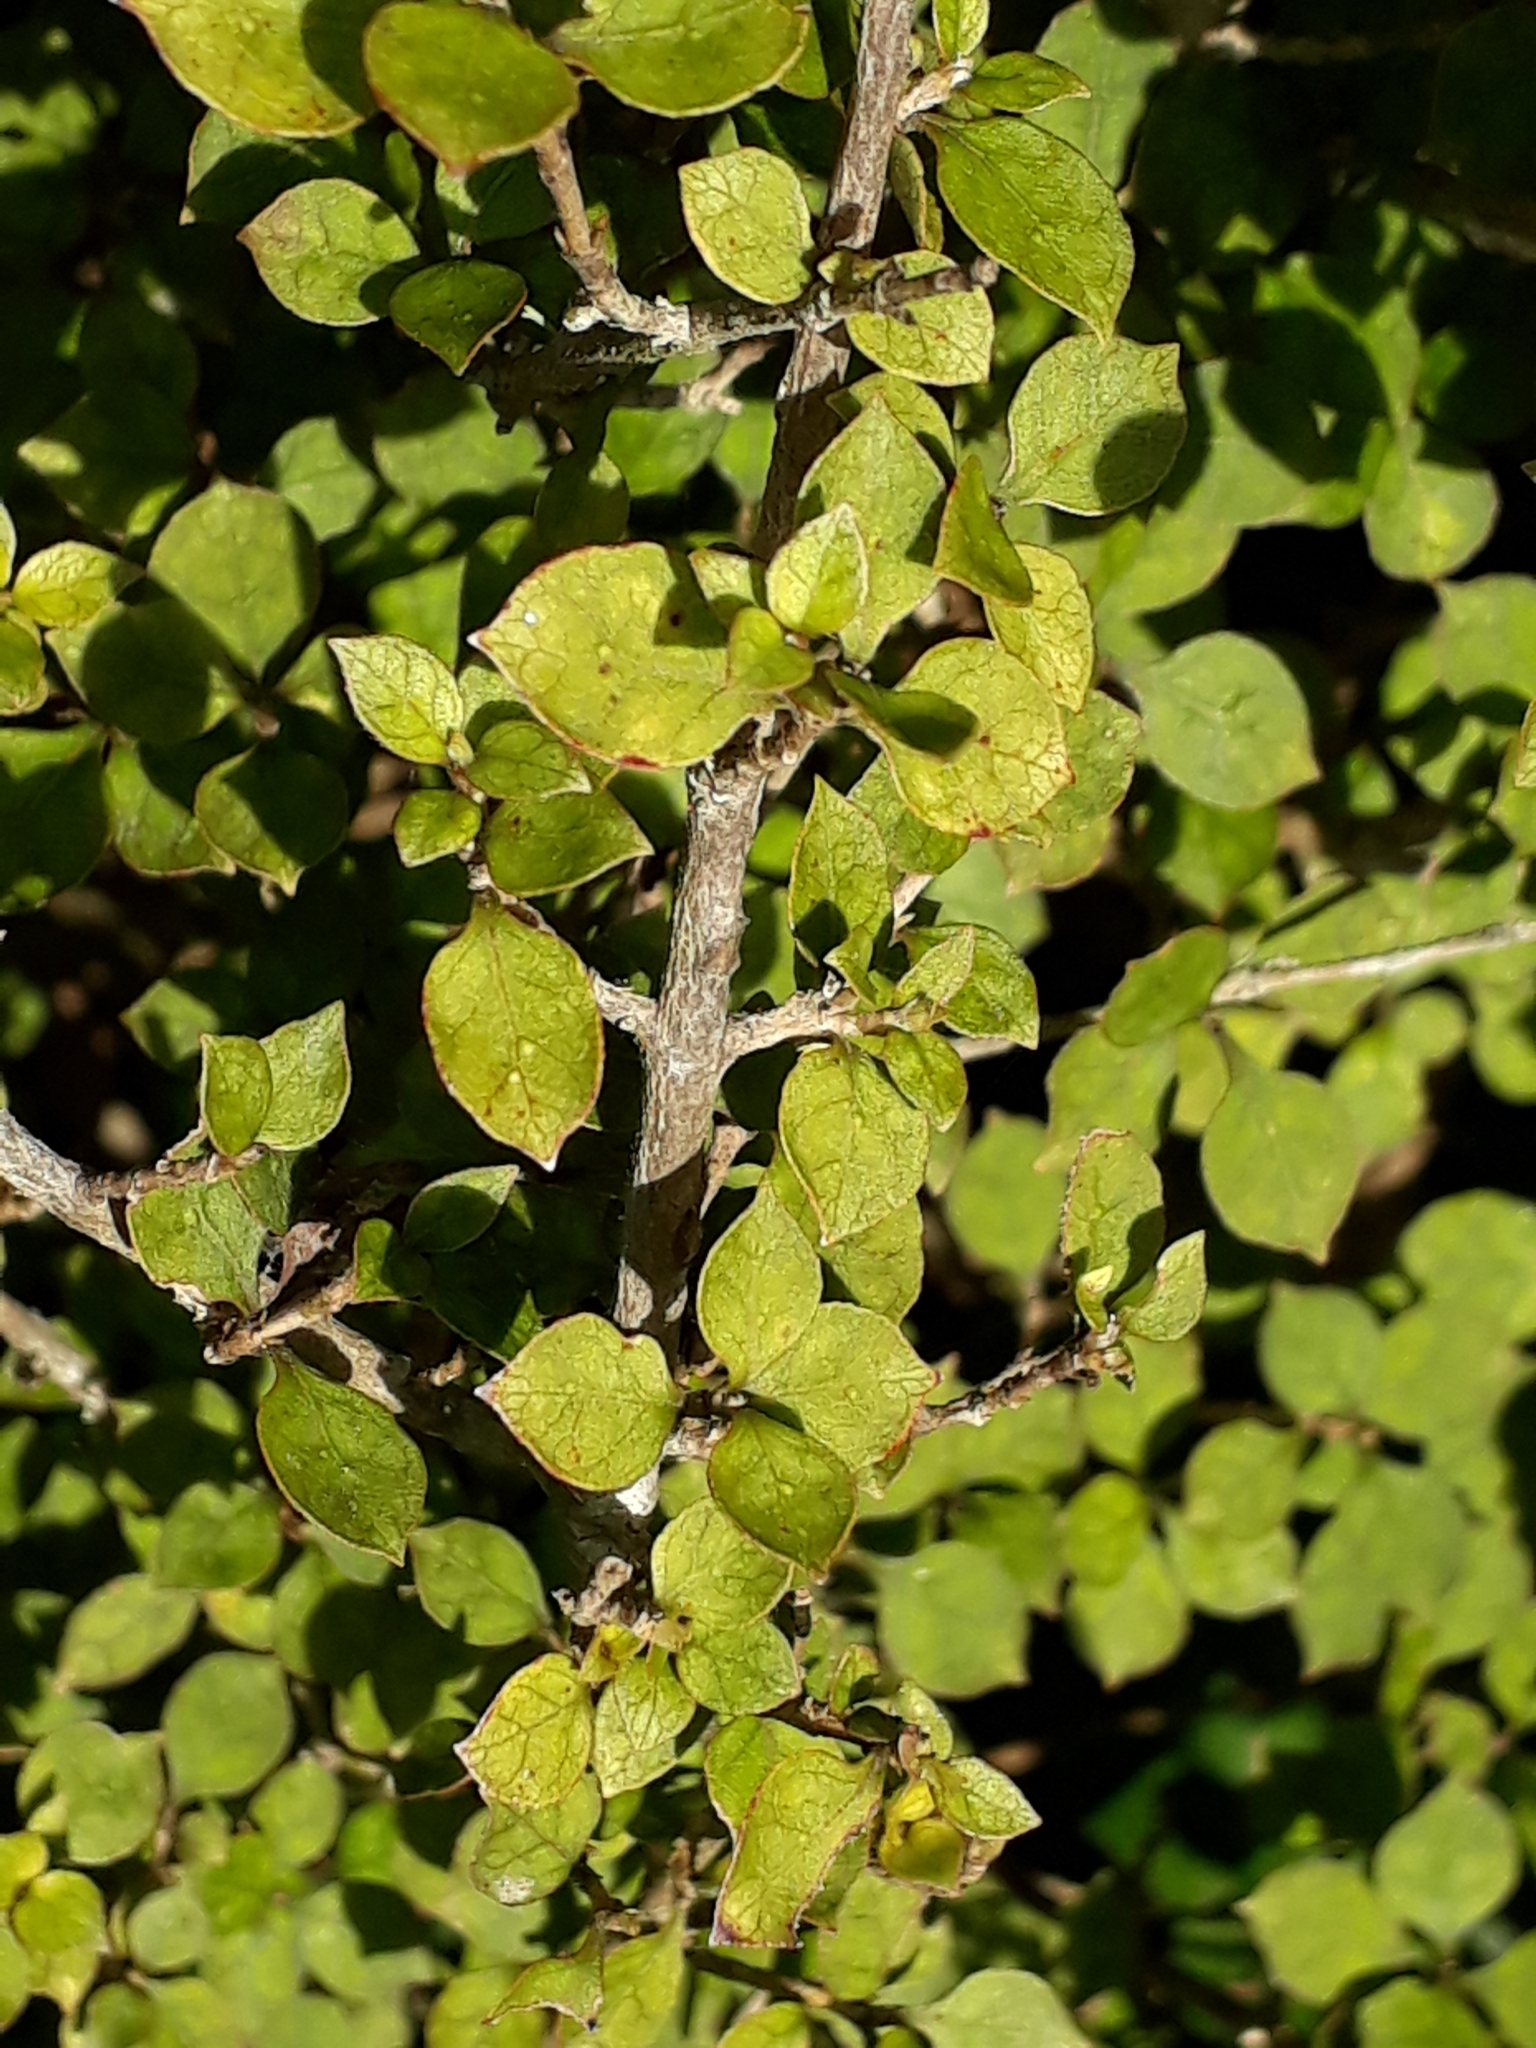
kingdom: Plantae
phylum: Tracheophyta
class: Magnoliopsida
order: Gentianales
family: Rubiaceae
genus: Coprosma
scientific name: Coprosma areolata
